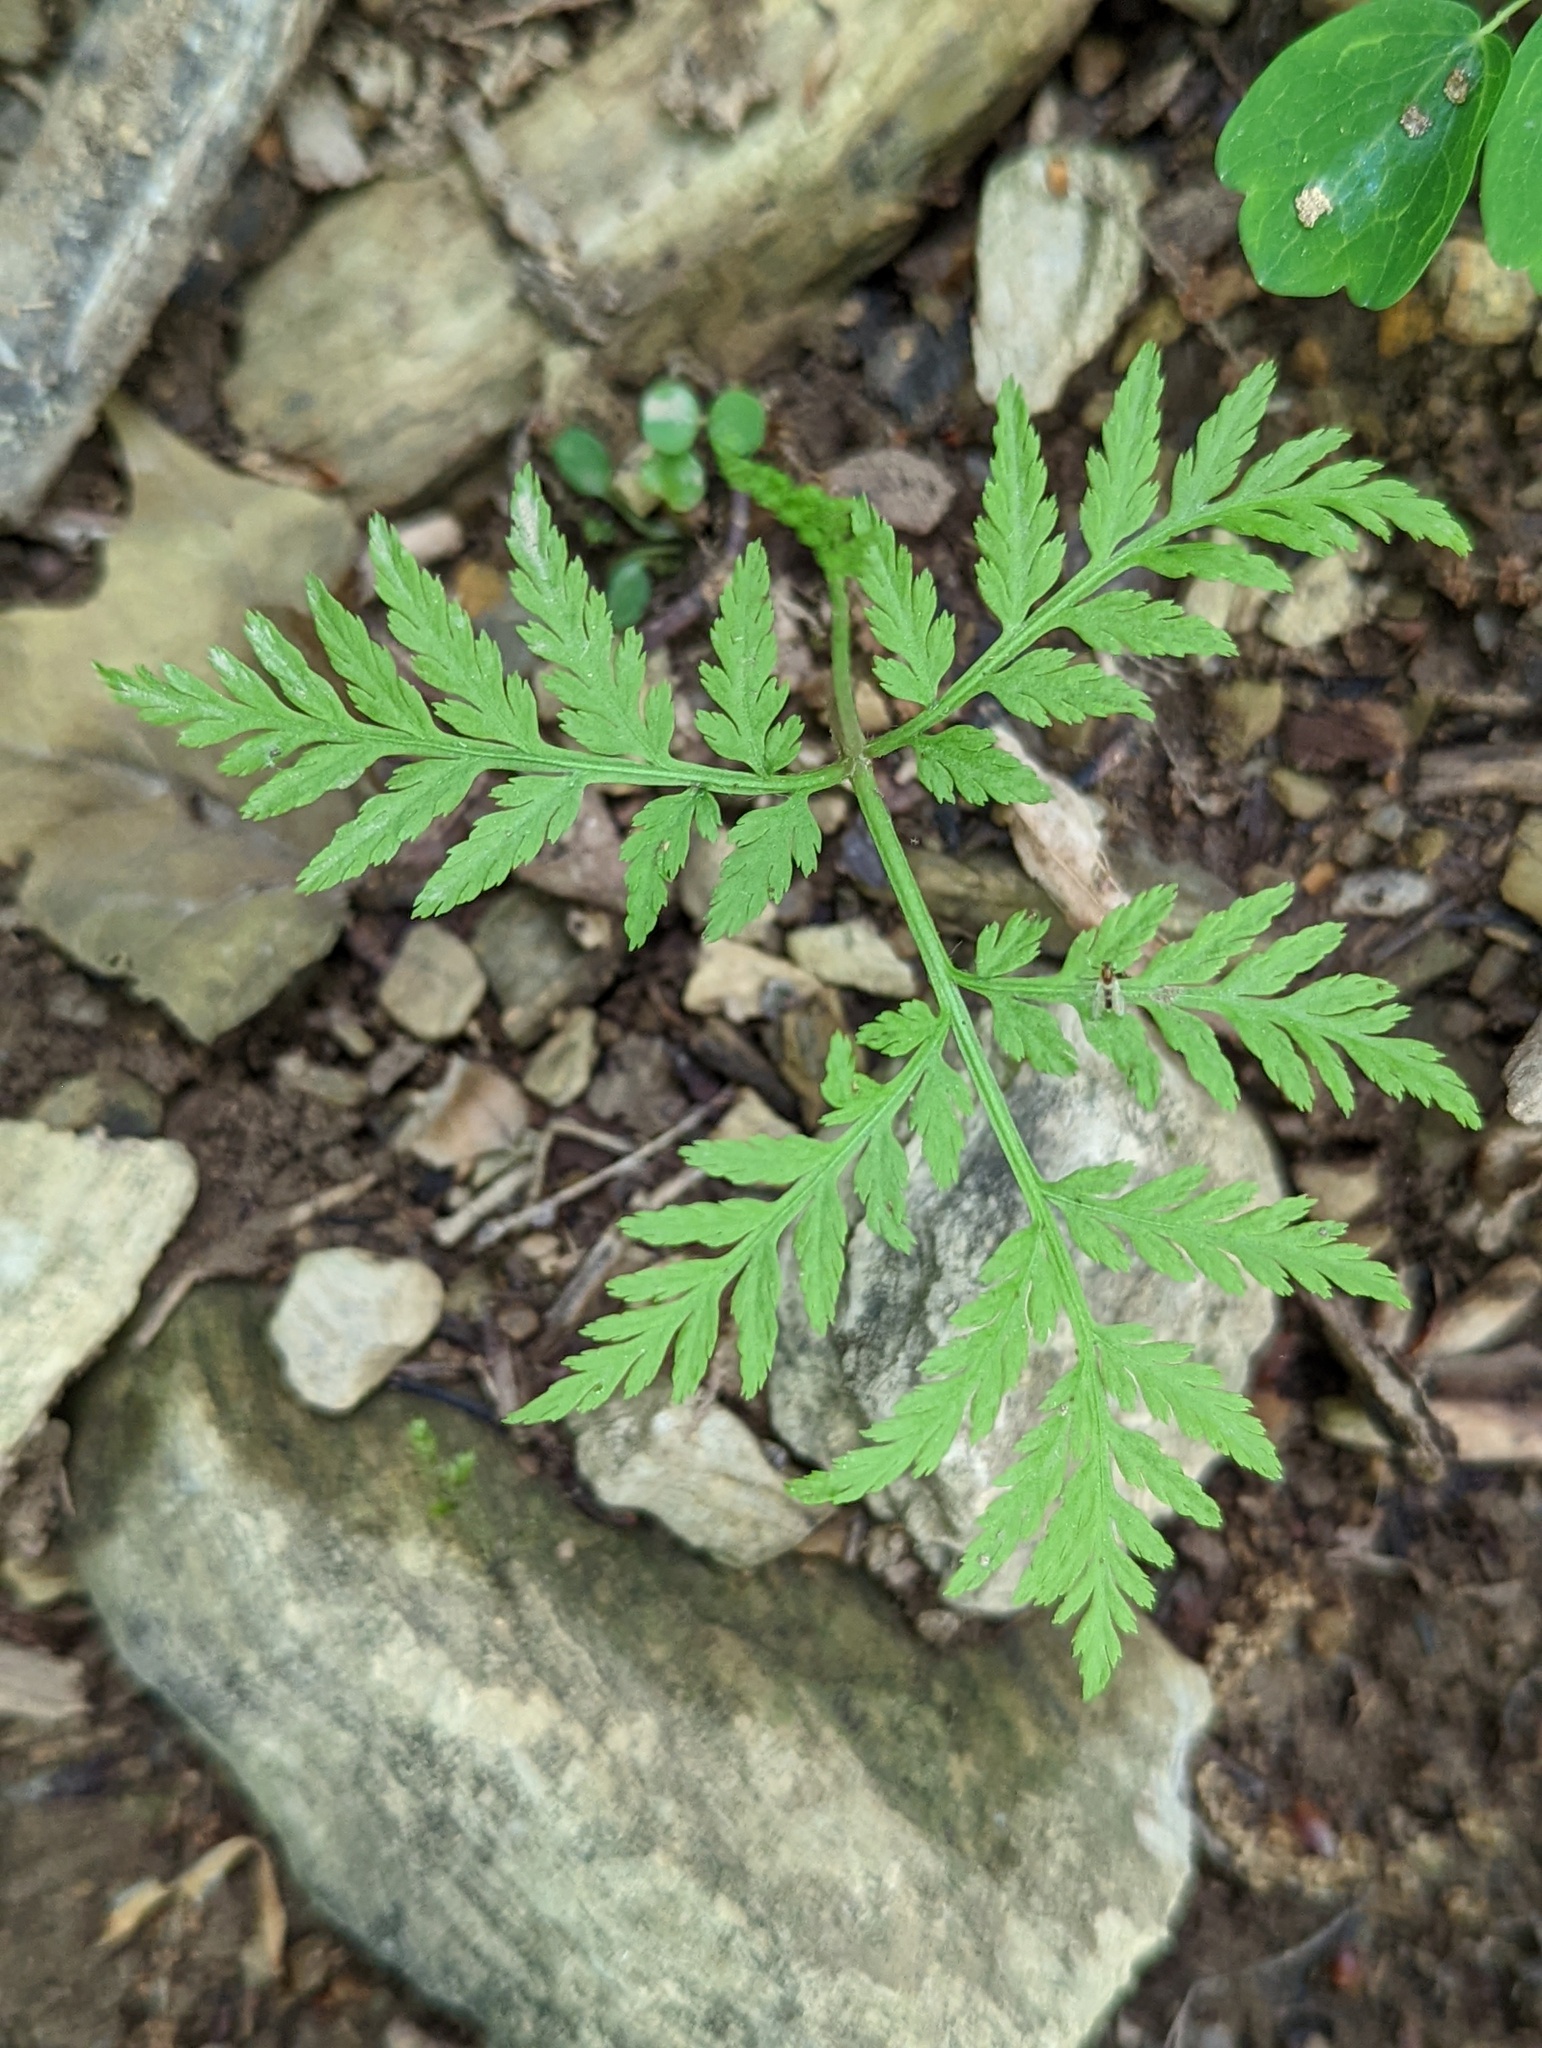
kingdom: Plantae
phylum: Tracheophyta
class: Polypodiopsida
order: Ophioglossales
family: Ophioglossaceae
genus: Botrypus
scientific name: Botrypus virginianus
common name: Common grapefern
